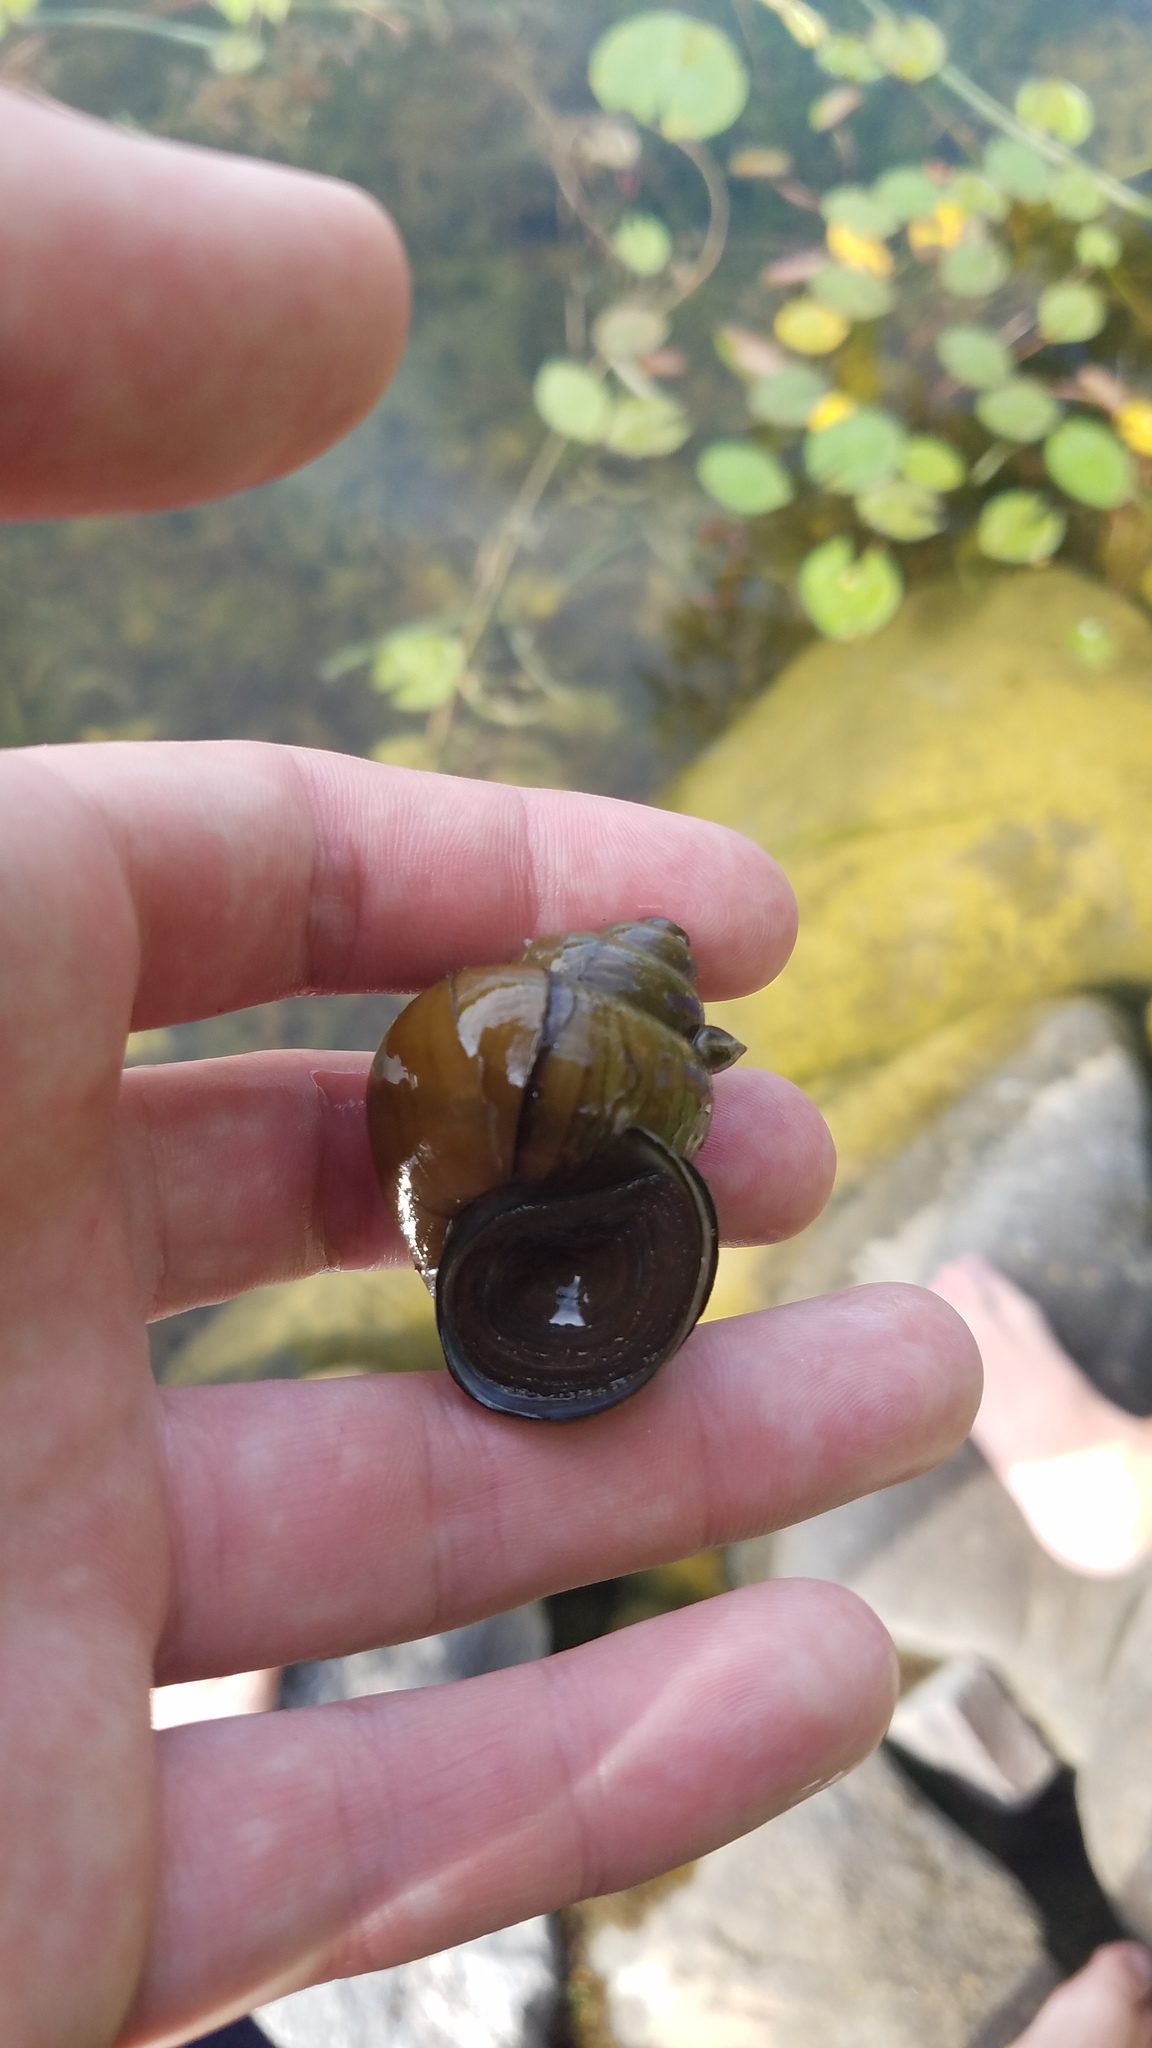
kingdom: Animalia
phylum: Mollusca
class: Gastropoda
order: Architaenioglossa
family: Viviparidae
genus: Cipangopaludina
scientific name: Cipangopaludina chinensis
